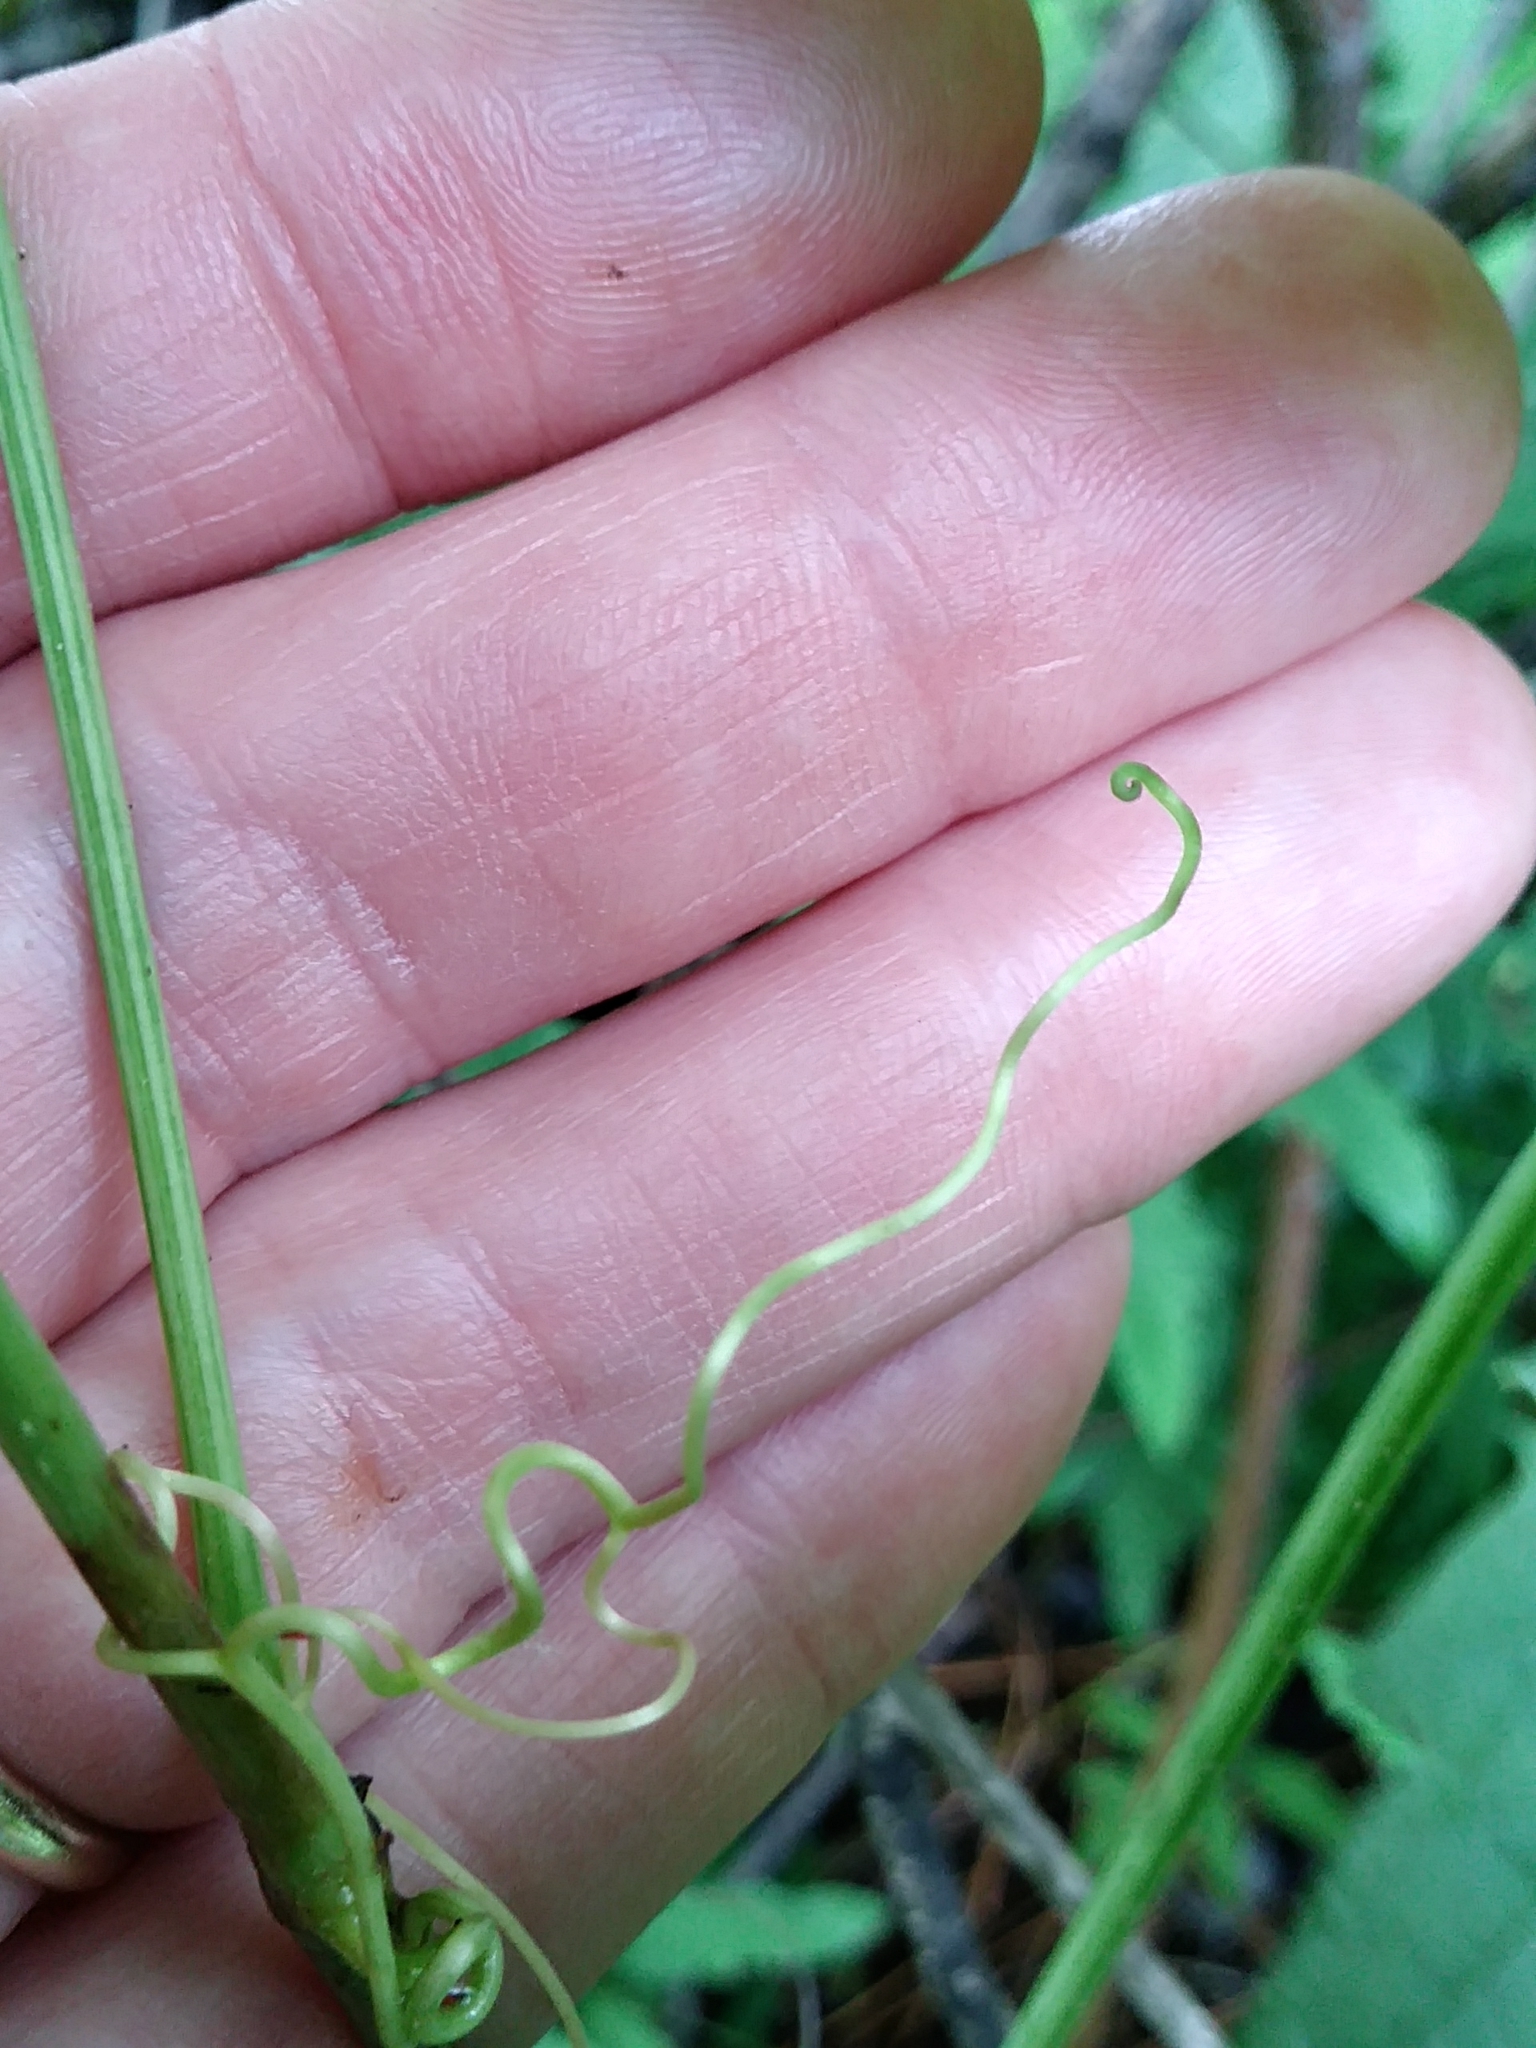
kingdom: Plantae
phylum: Tracheophyta
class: Magnoliopsida
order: Vitales
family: Vitaceae
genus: Parthenocissus
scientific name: Parthenocissus inserta
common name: False virginia-creeper
